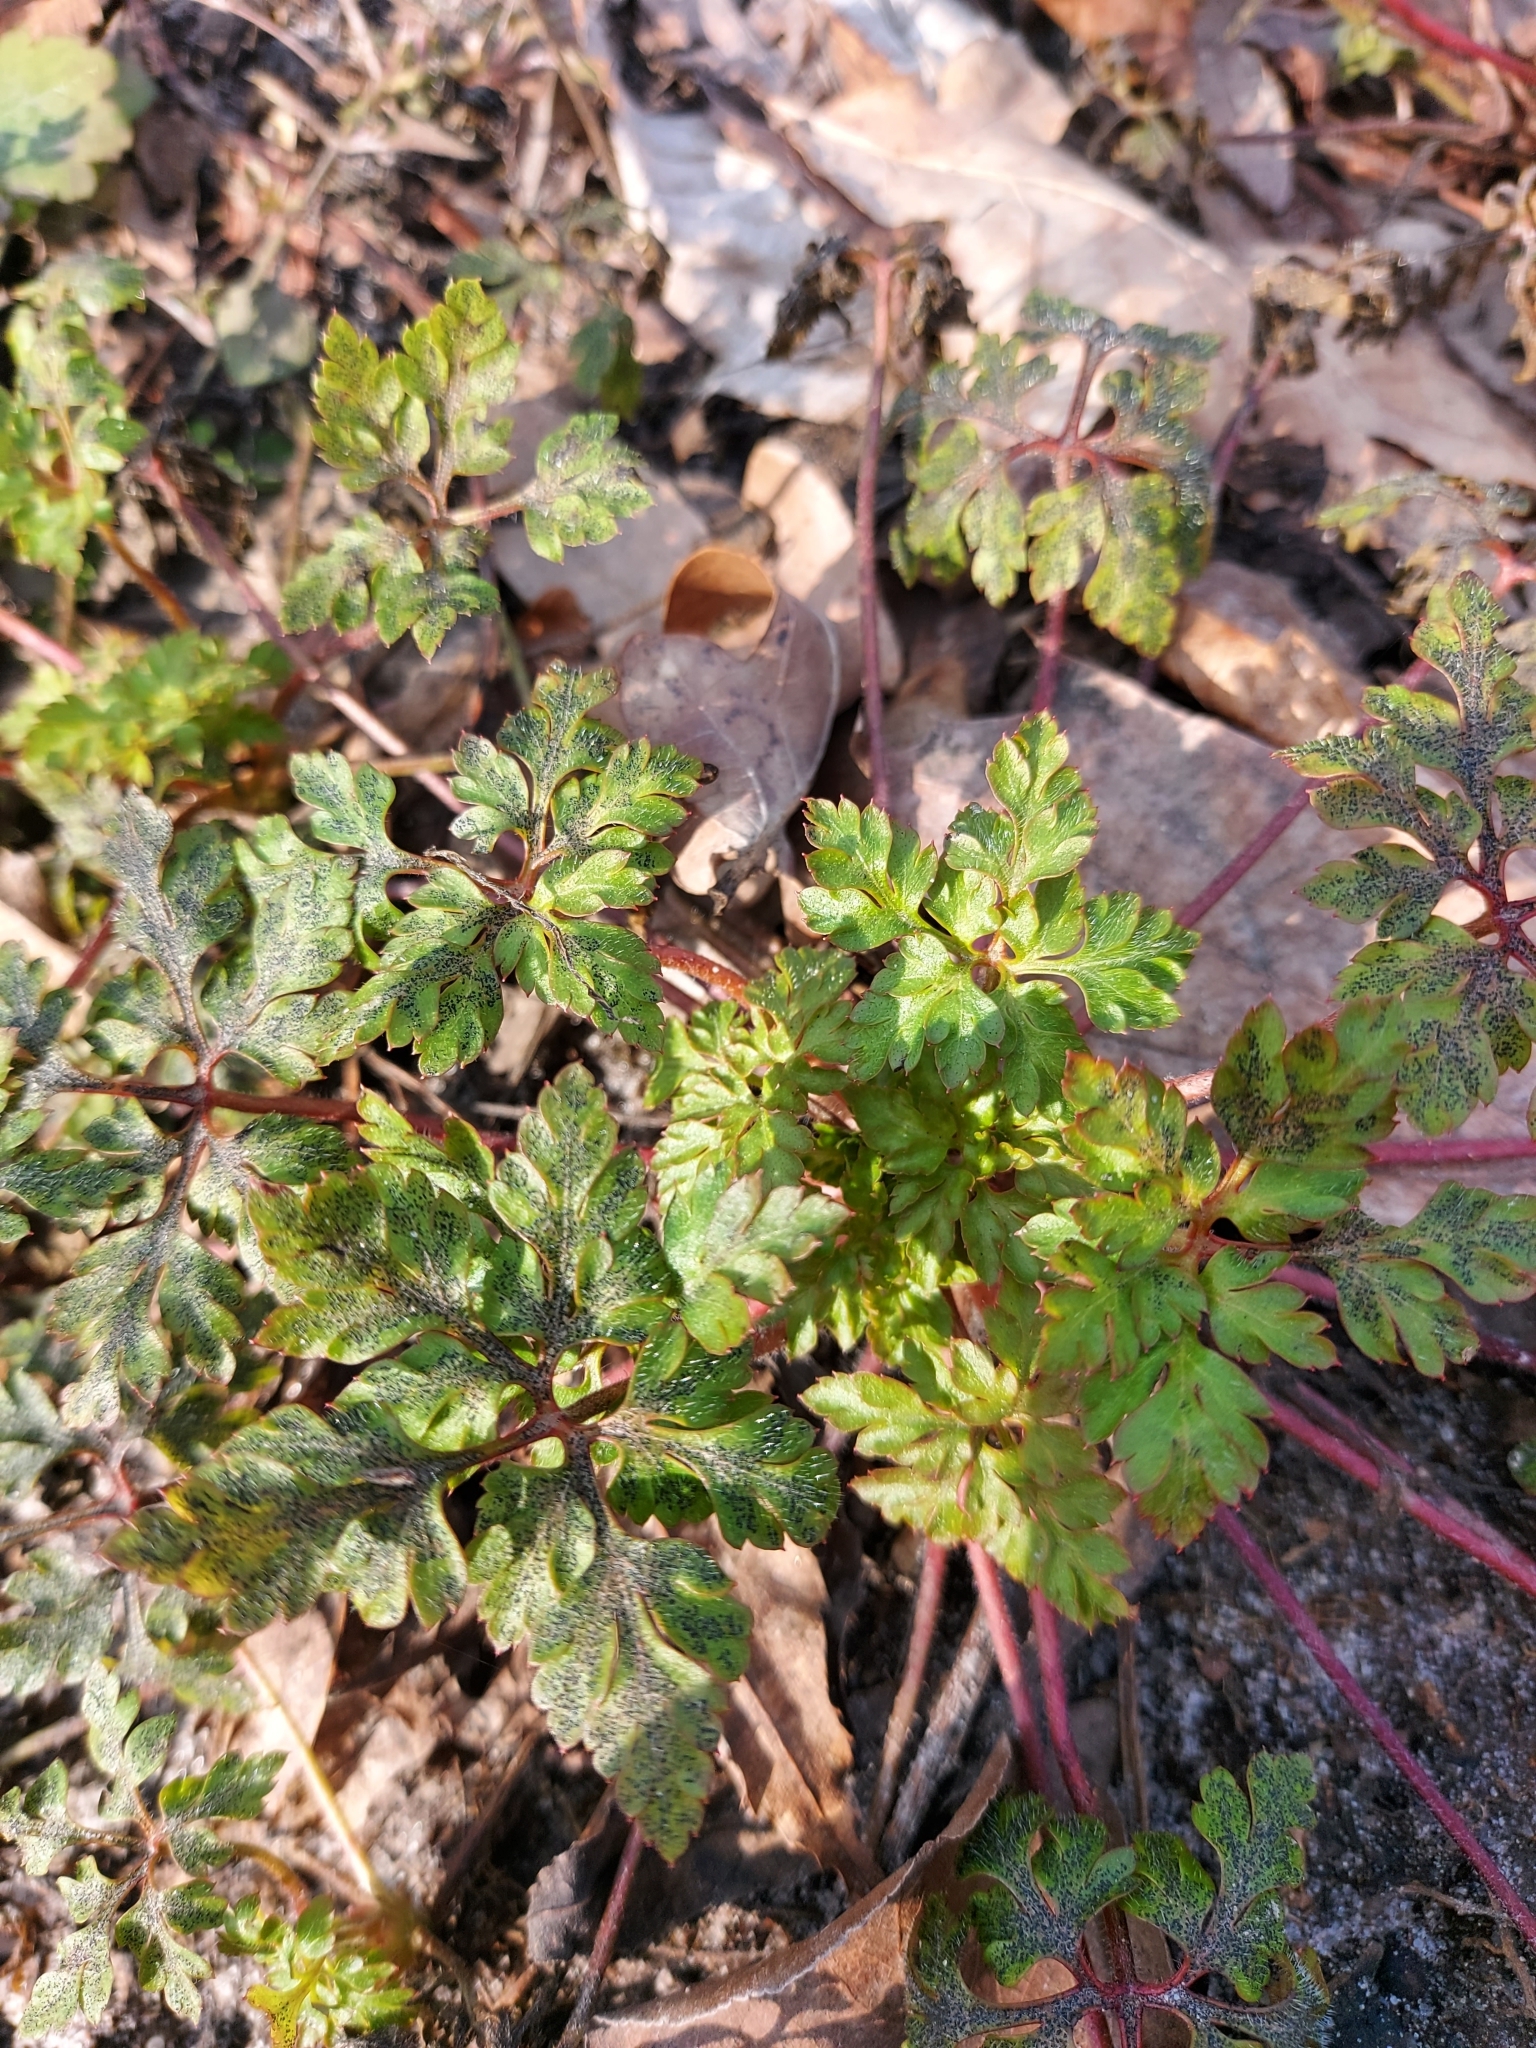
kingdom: Plantae
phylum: Tracheophyta
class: Magnoliopsida
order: Geraniales
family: Geraniaceae
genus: Geranium
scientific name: Geranium robertianum
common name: Herb-robert
